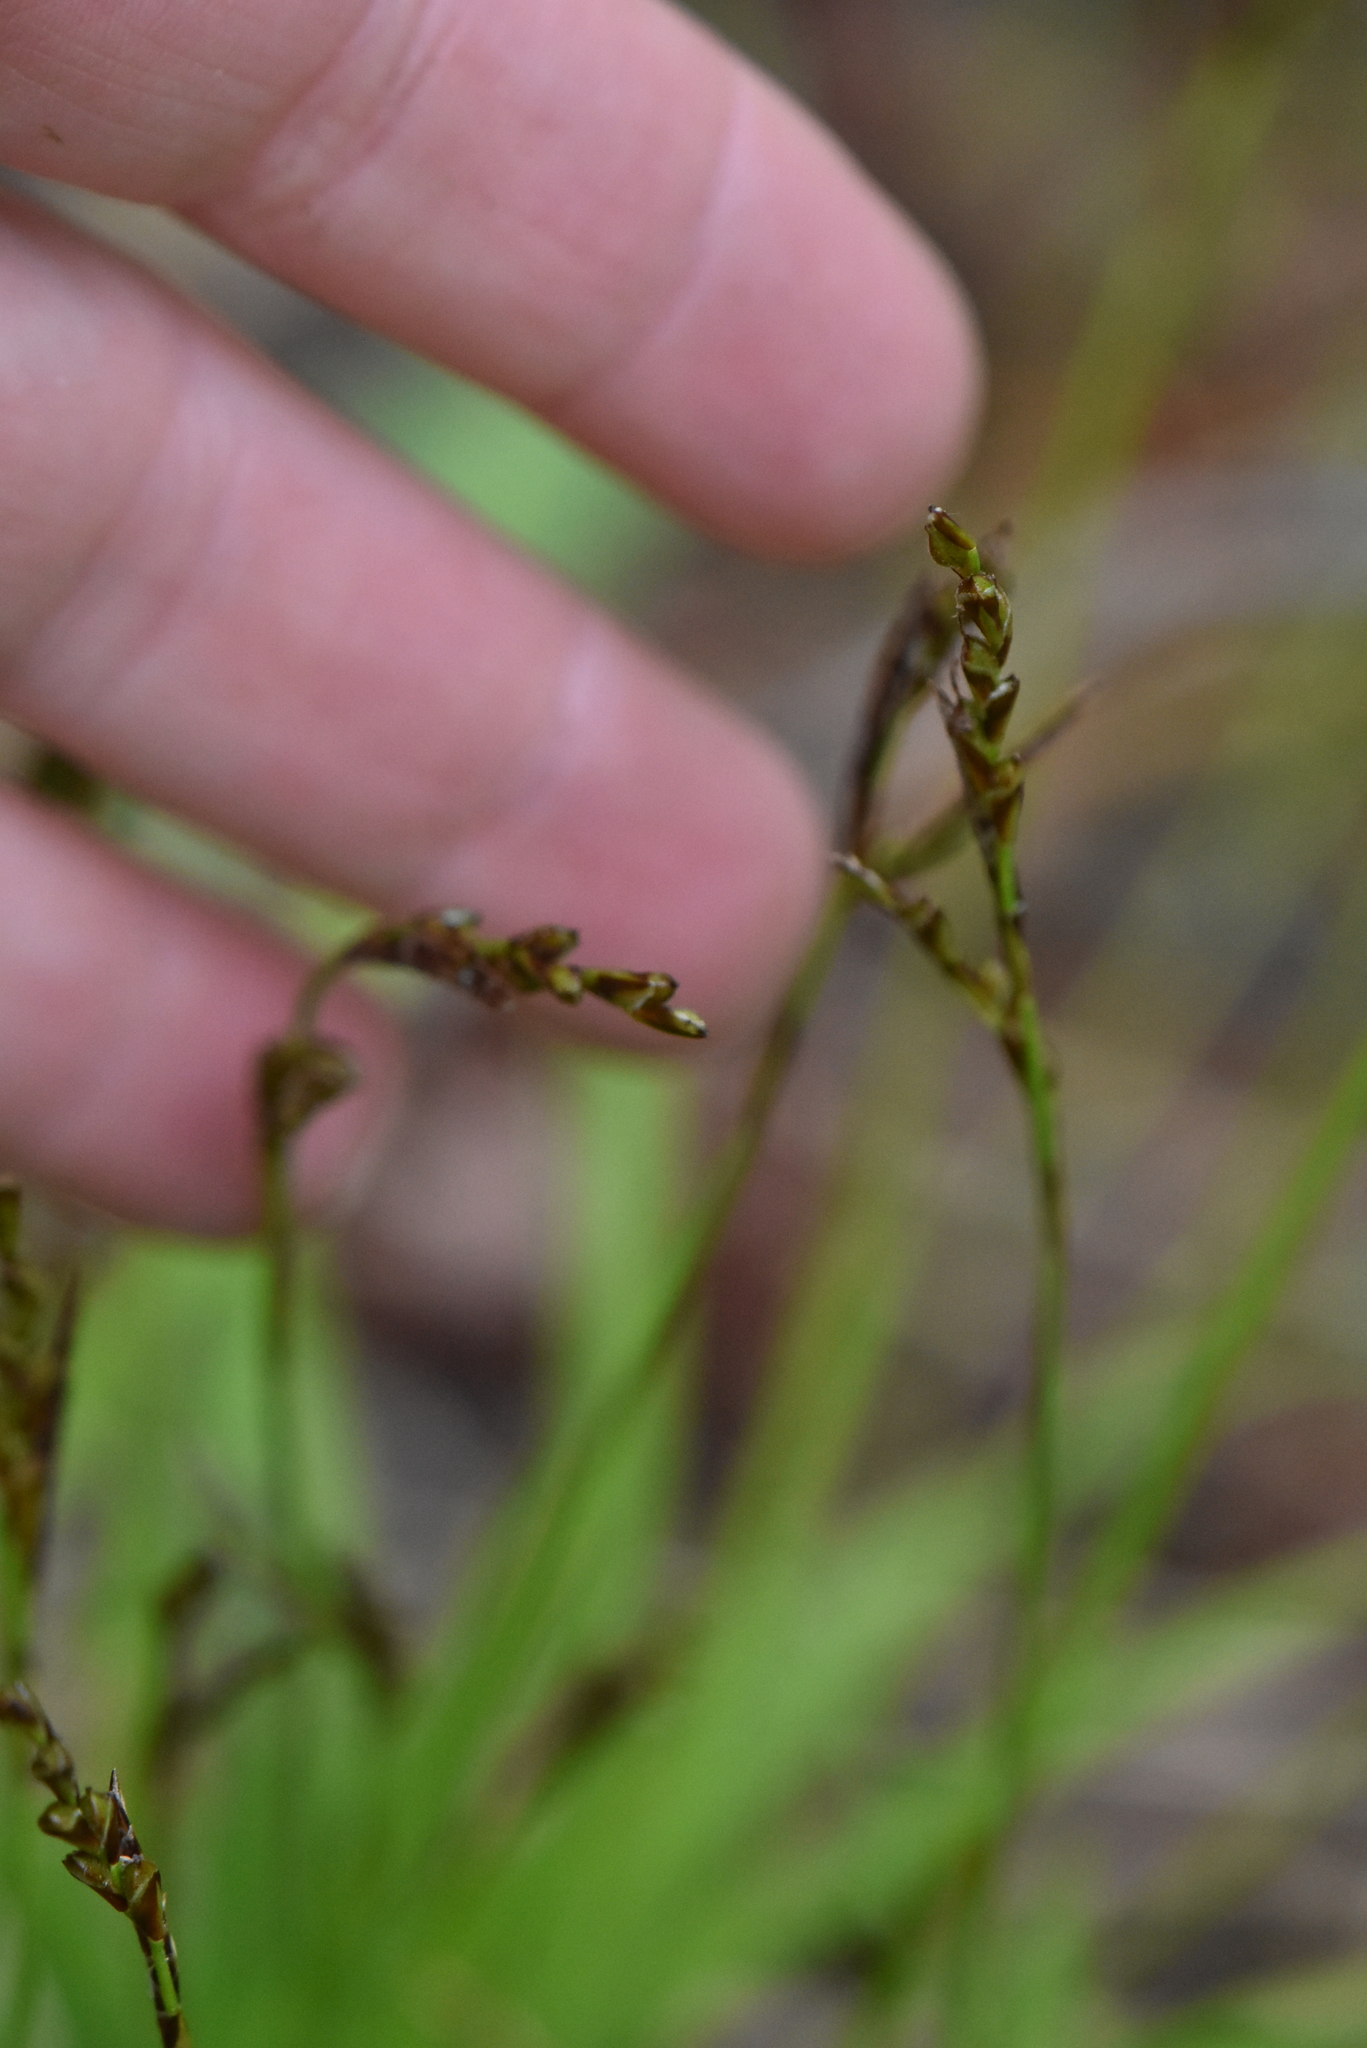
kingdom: Plantae
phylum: Tracheophyta
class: Liliopsida
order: Poales
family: Cyperaceae
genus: Carex
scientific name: Carex digitata
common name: Fingered sedge
